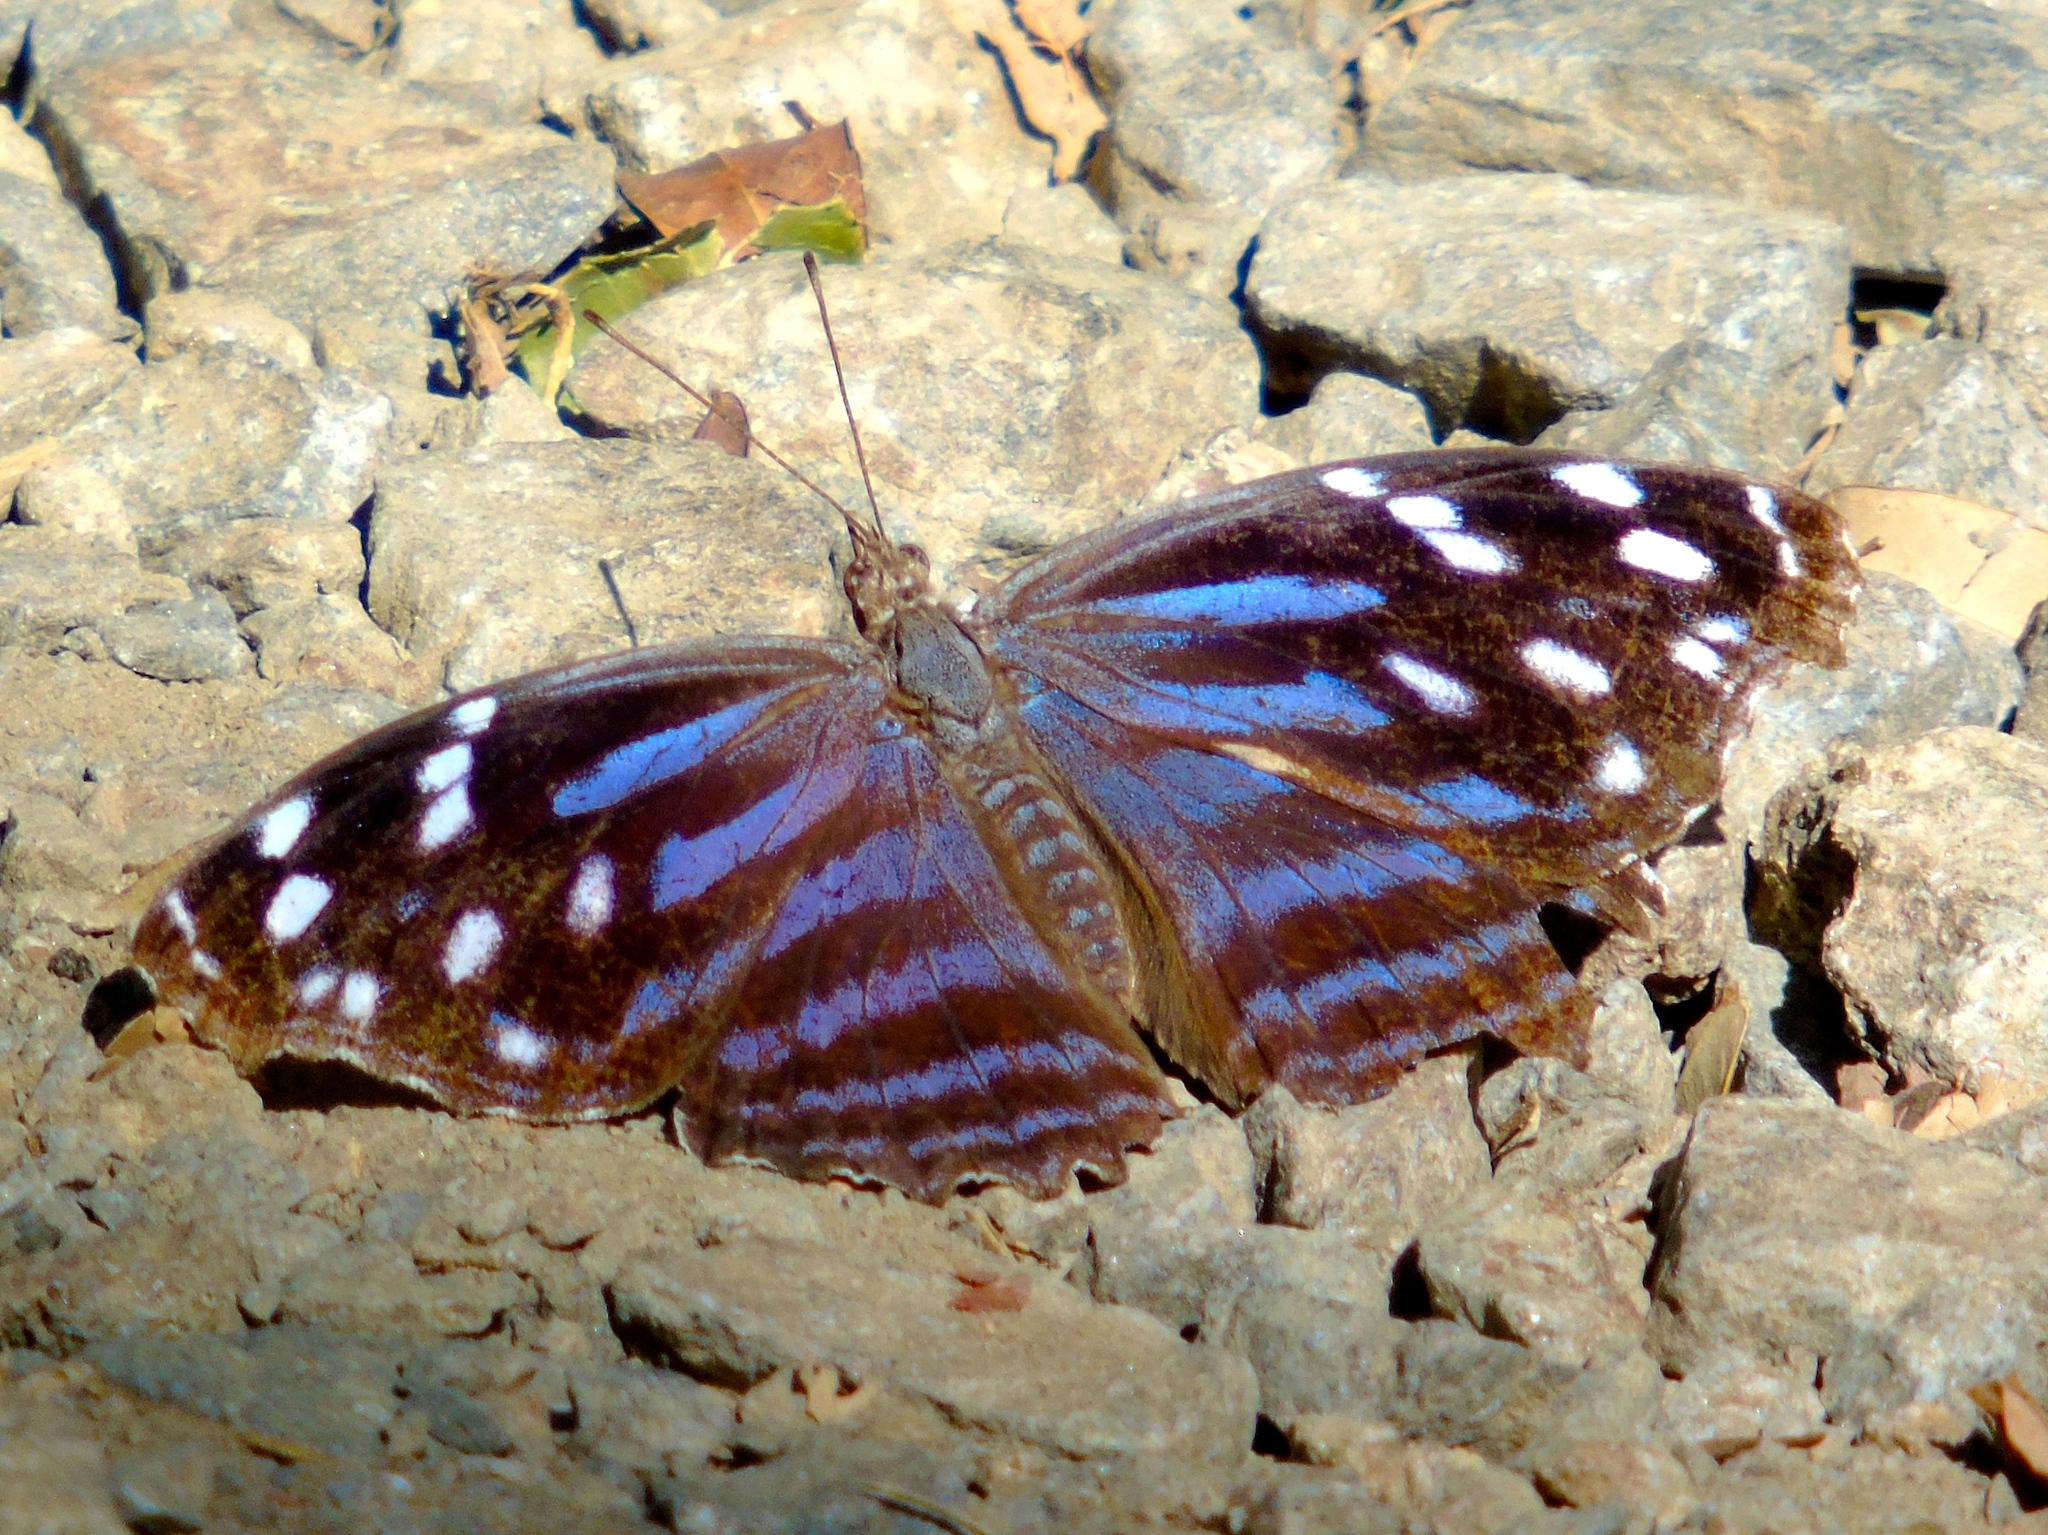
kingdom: Animalia
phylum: Arthropoda
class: Insecta
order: Lepidoptera
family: Nymphalidae
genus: Myscelia
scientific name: Myscelia ethusa
